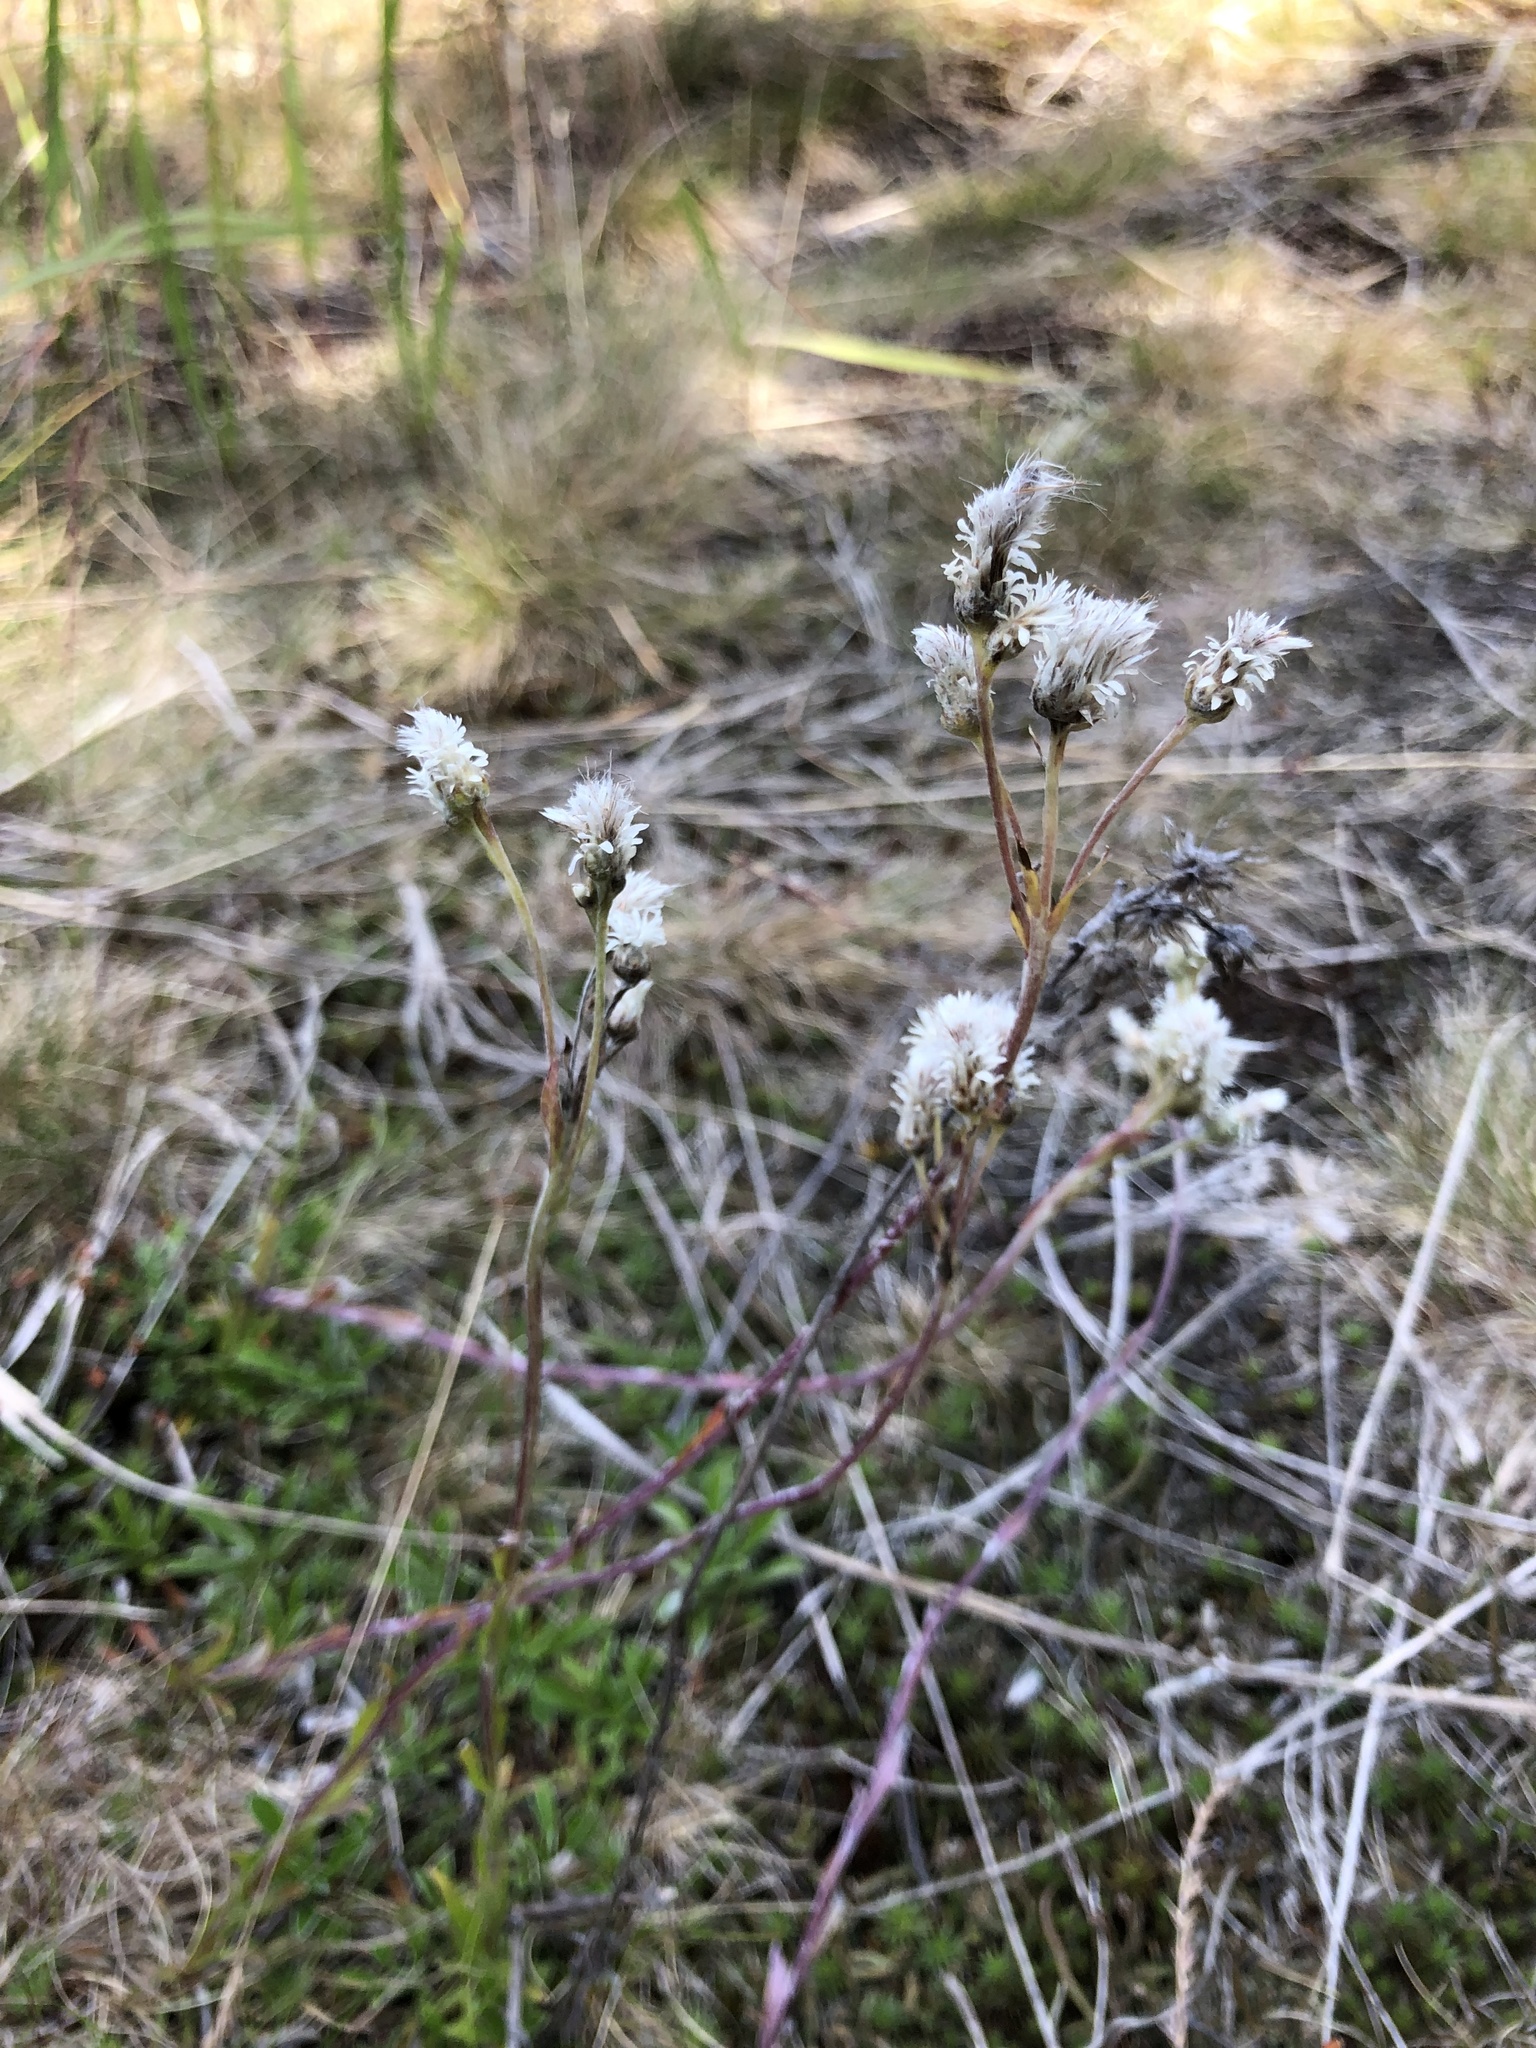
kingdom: Plantae
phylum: Tracheophyta
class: Magnoliopsida
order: Asterales
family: Asteraceae
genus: Antennaria
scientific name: Antennaria dioica
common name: Mountain everlasting
